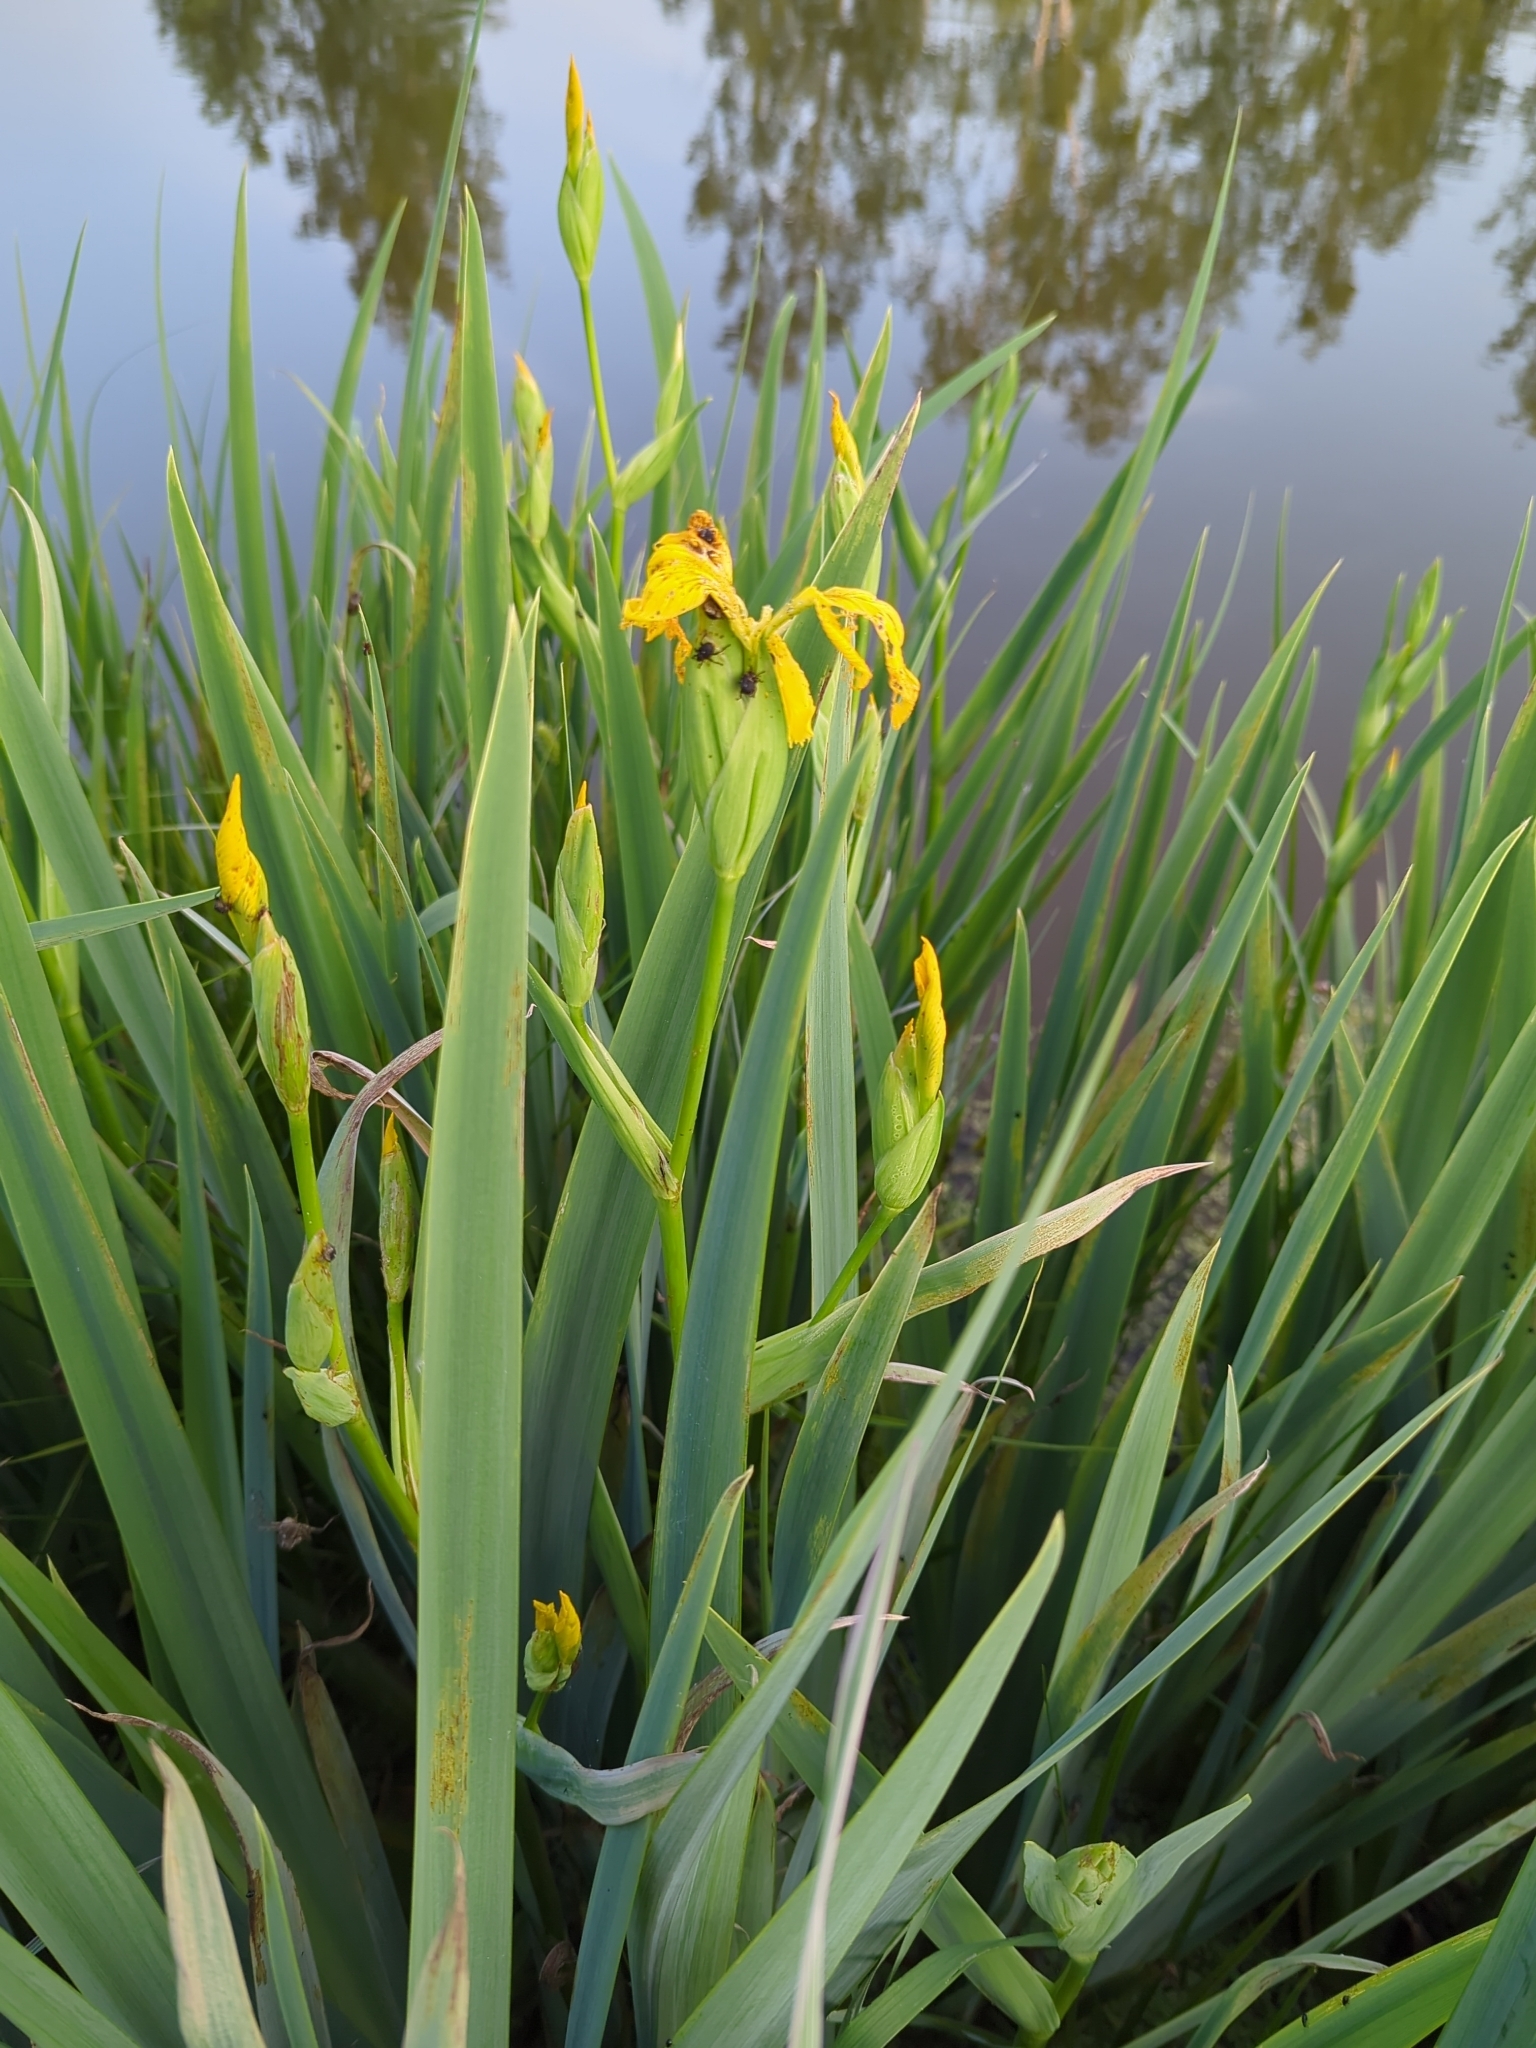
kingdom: Plantae
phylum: Tracheophyta
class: Liliopsida
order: Asparagales
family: Iridaceae
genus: Iris
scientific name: Iris pseudacorus
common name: Yellow flag
